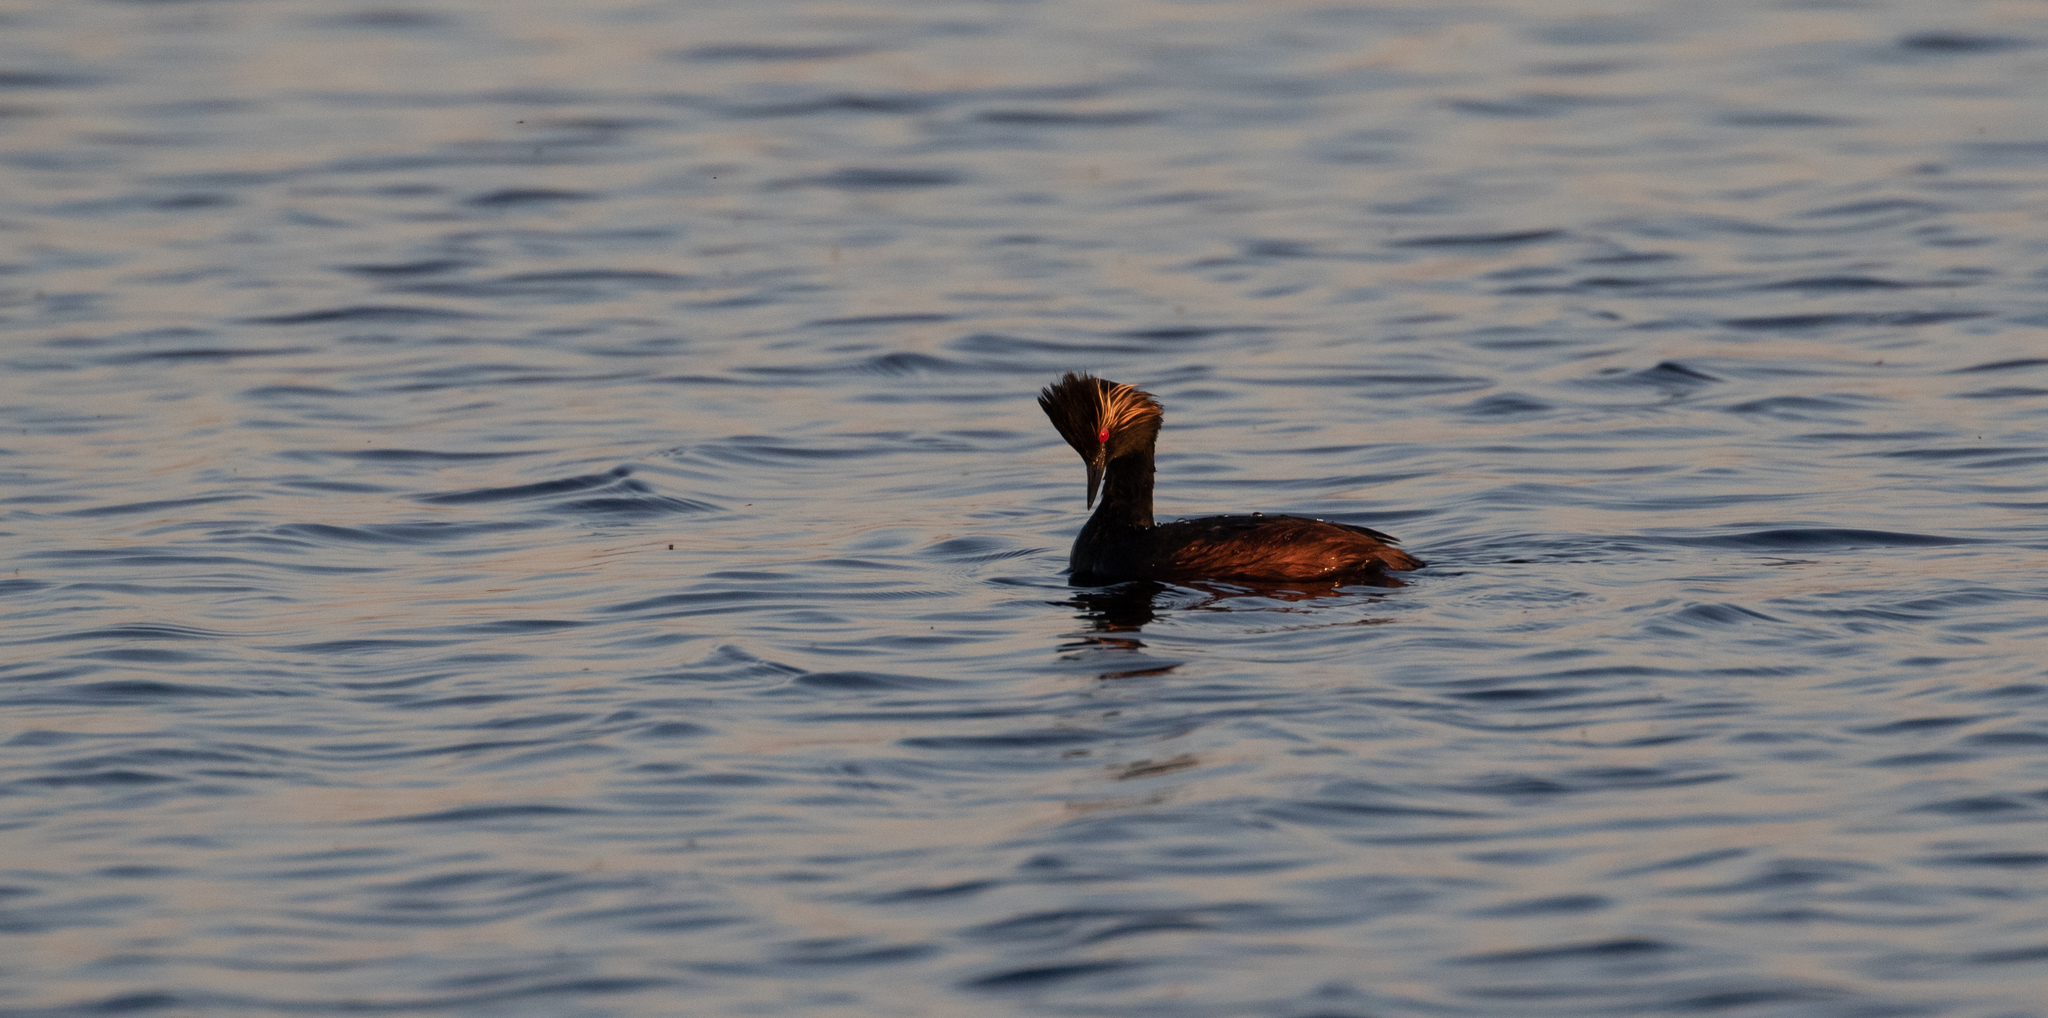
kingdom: Animalia
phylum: Chordata
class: Aves
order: Podicipediformes
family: Podicipedidae
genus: Podiceps
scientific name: Podiceps nigricollis
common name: Black-necked grebe
